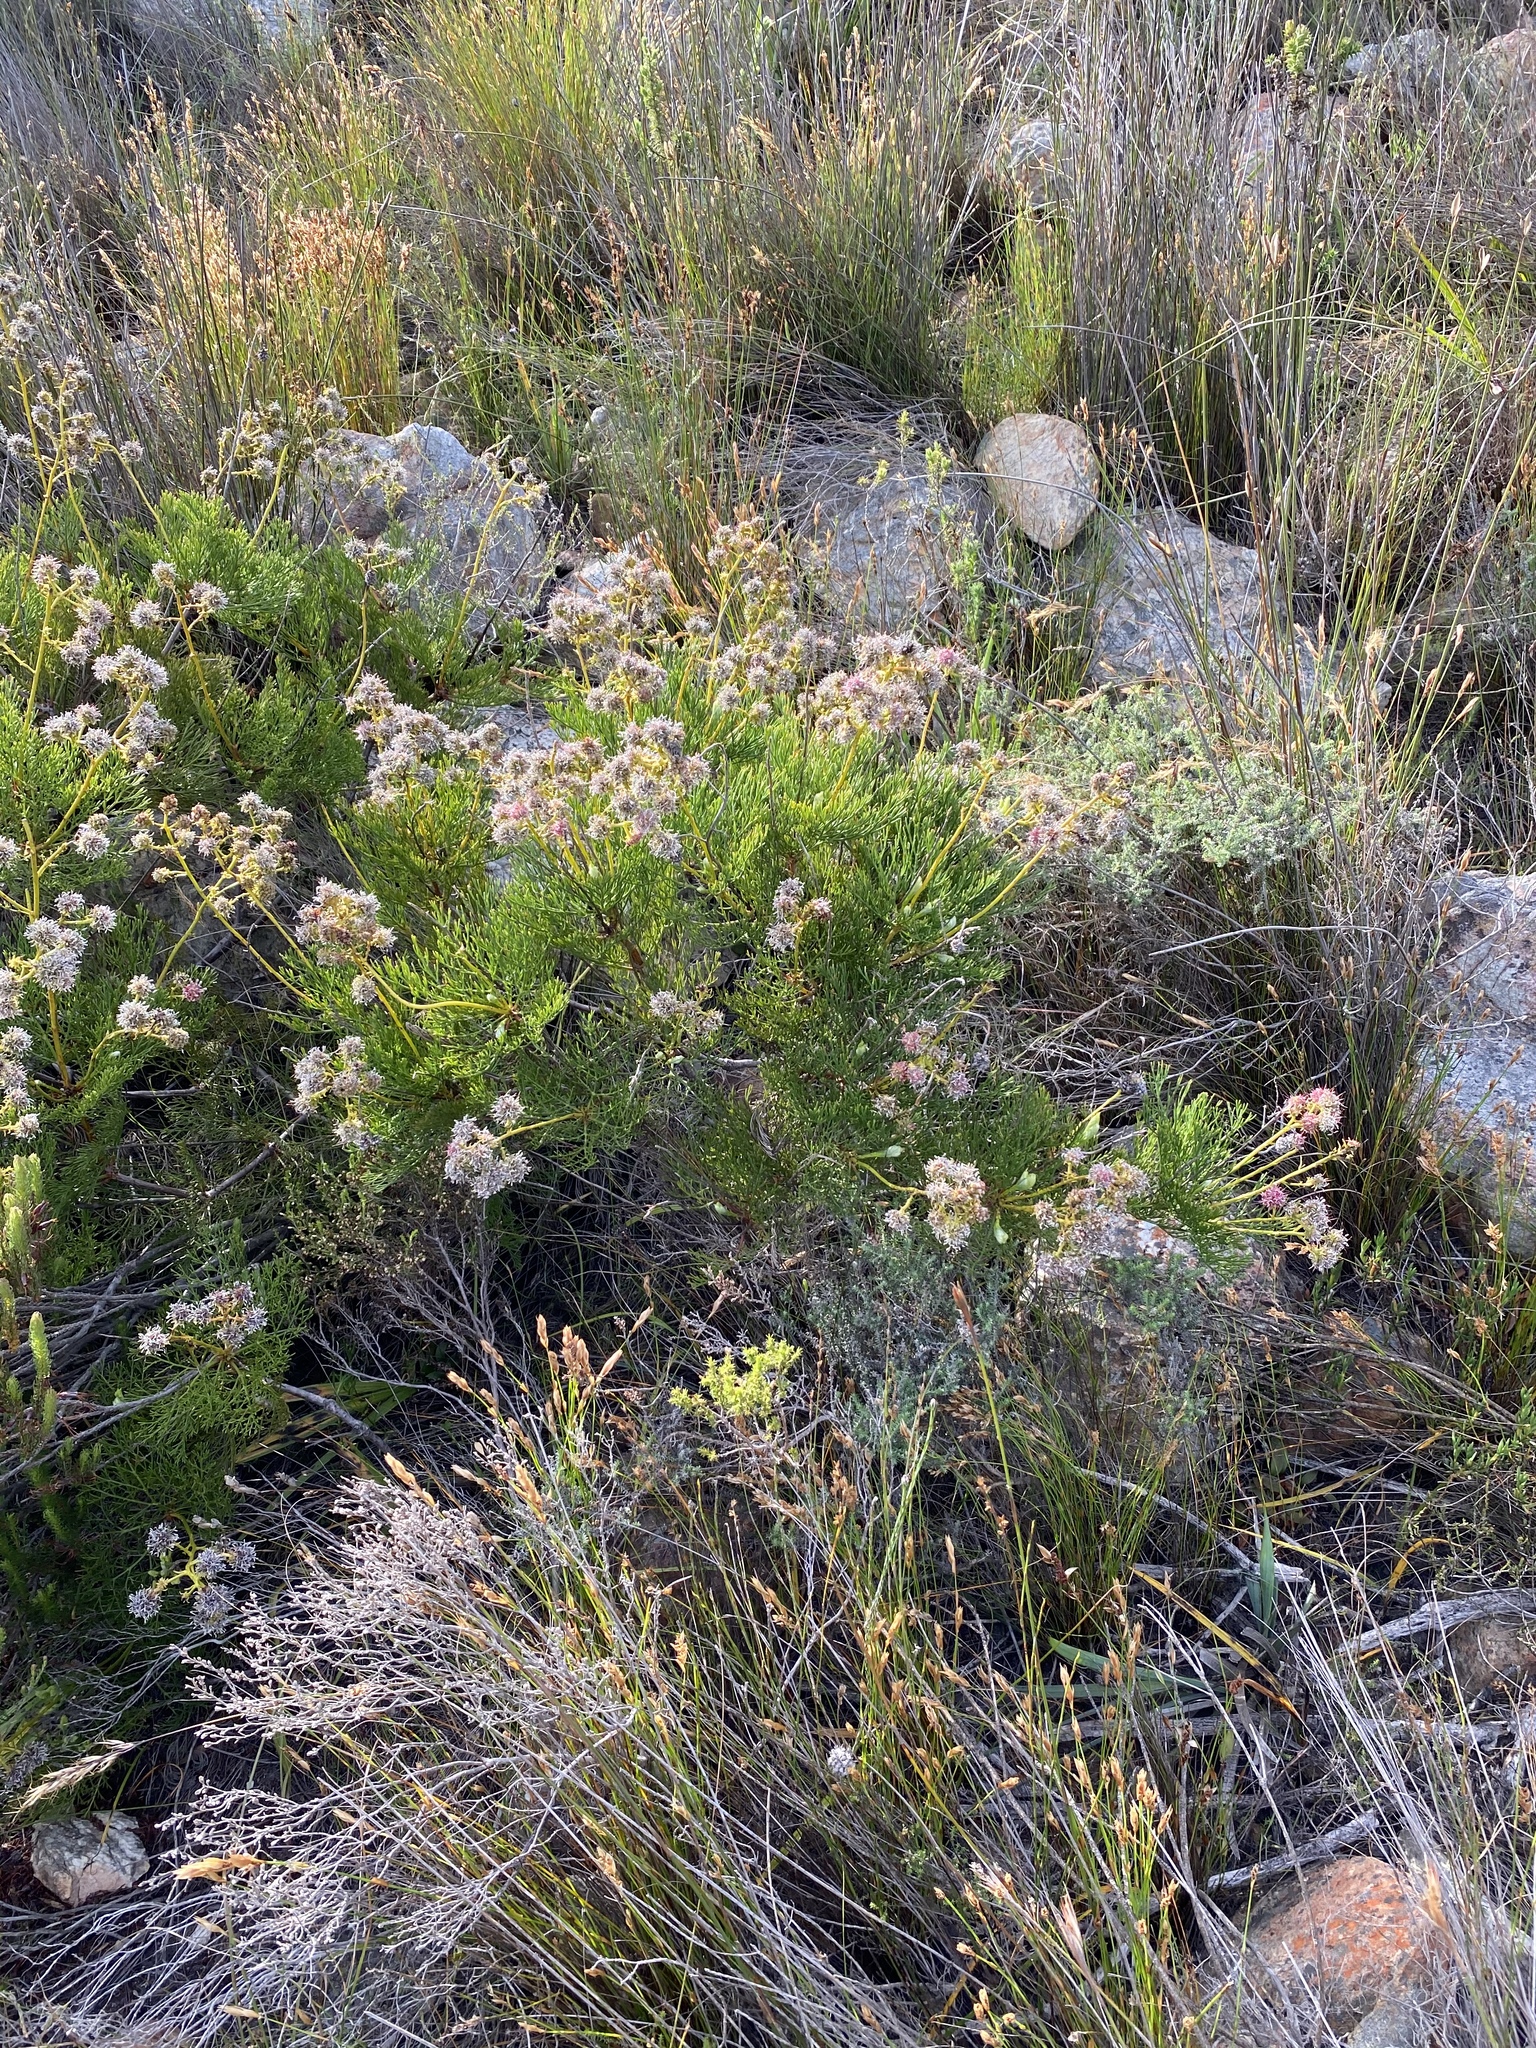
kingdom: Plantae
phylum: Tracheophyta
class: Magnoliopsida
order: Proteales
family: Proteaceae
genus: Serruria
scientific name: Serruria elongata
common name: Long-stalk spiderhead
